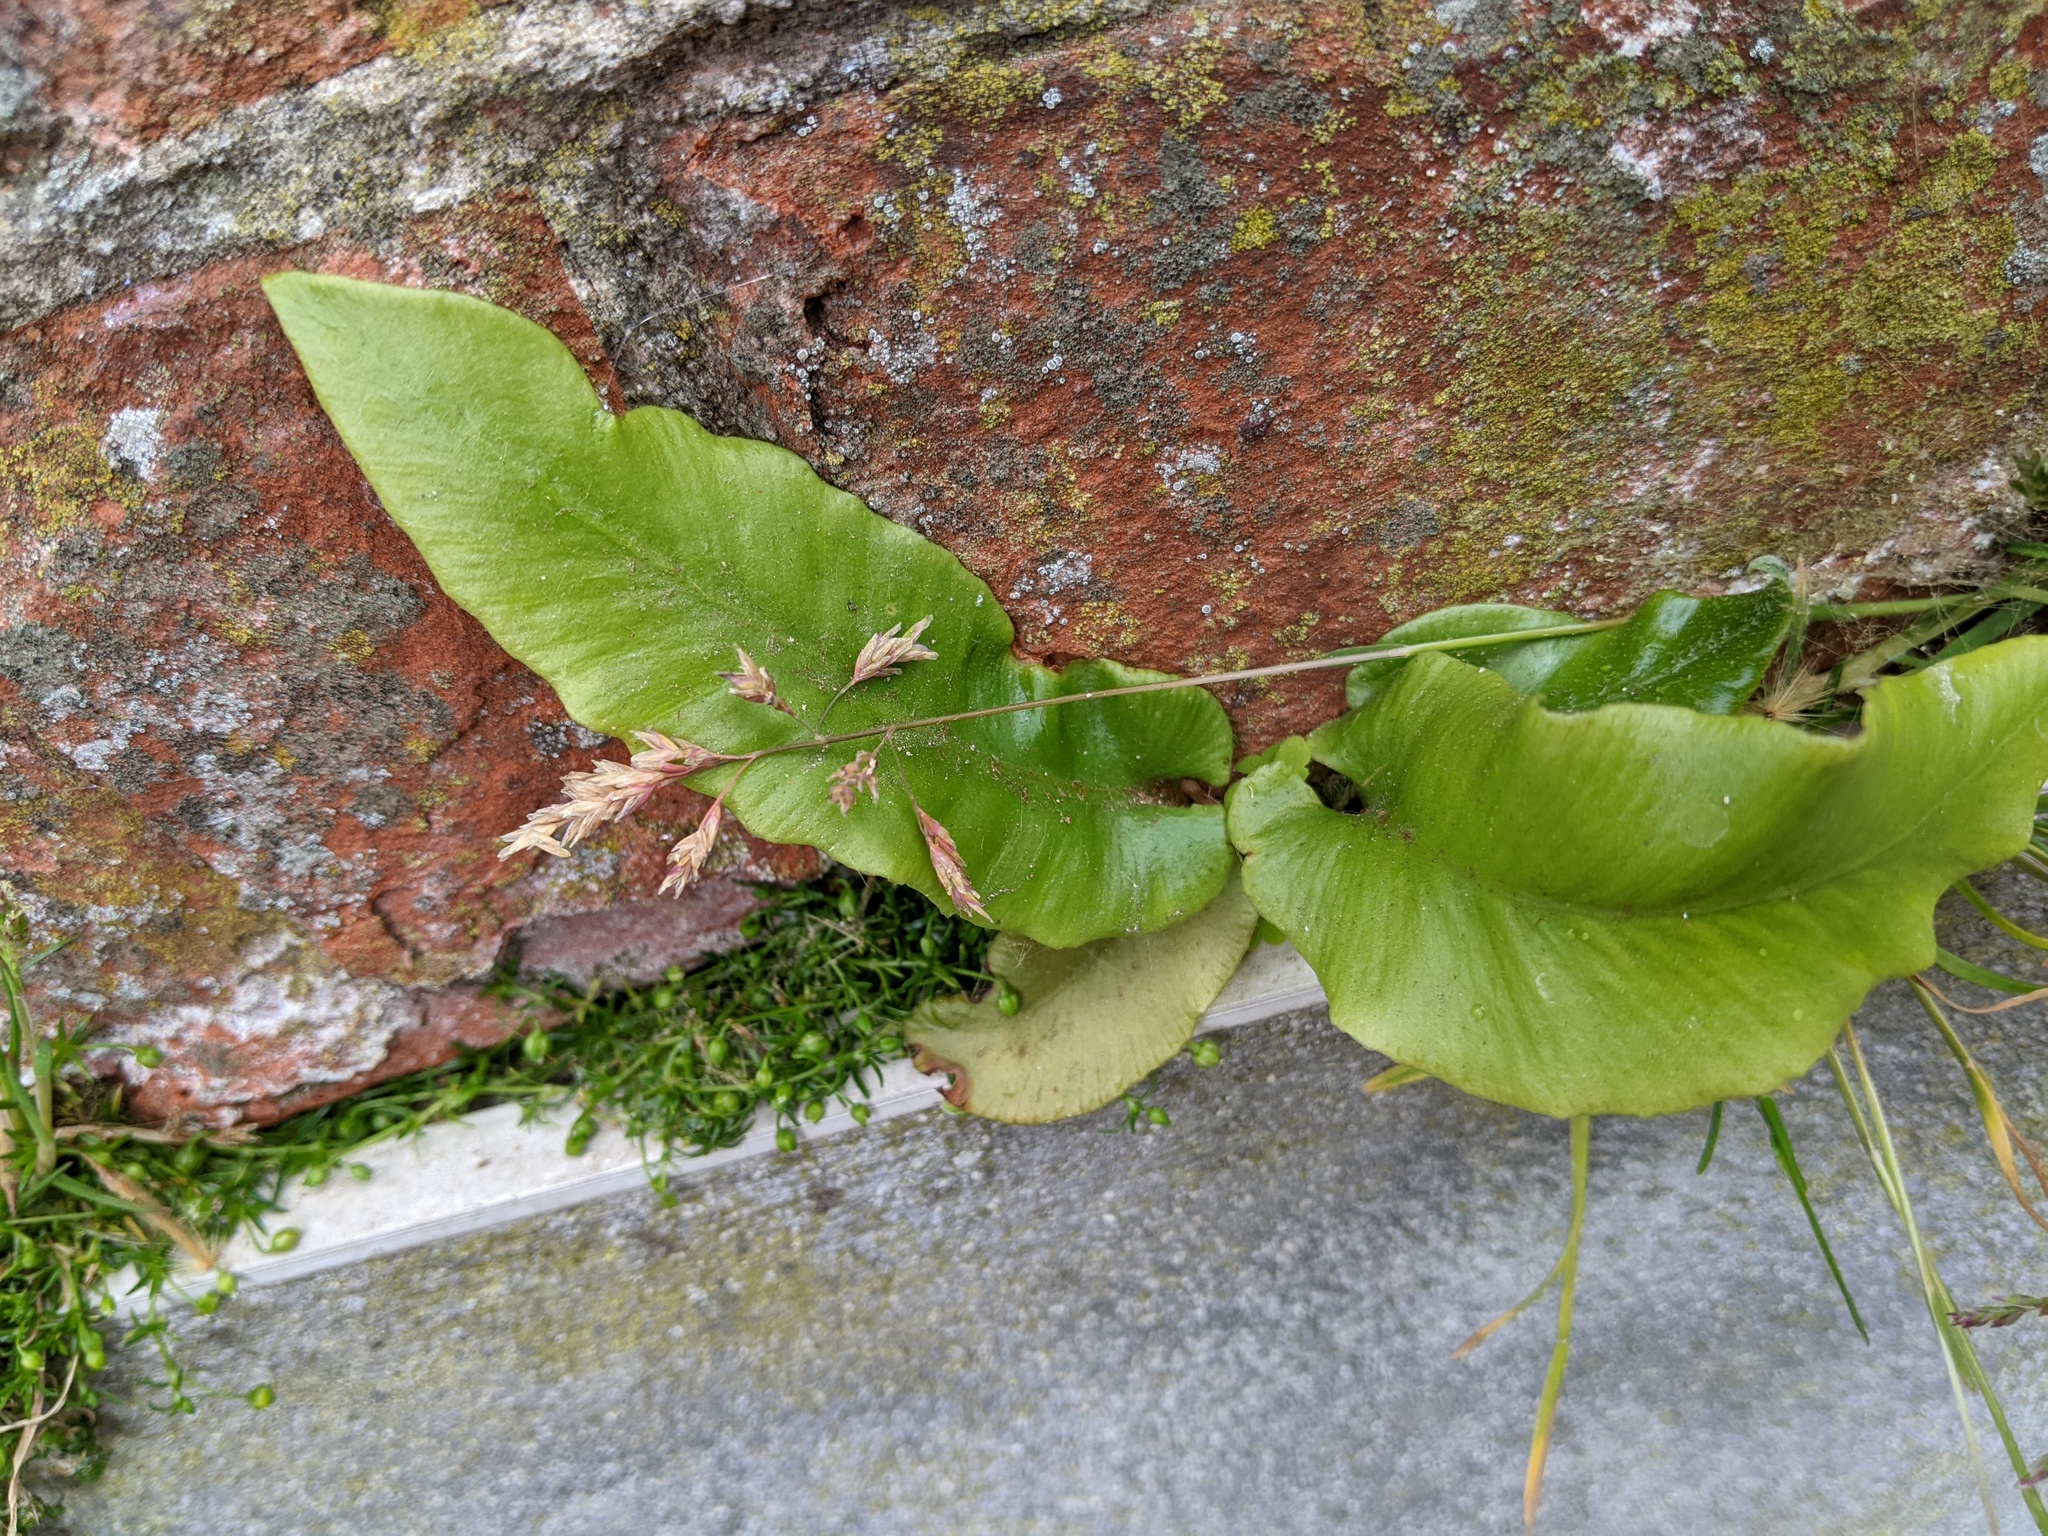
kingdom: Plantae
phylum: Tracheophyta
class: Polypodiopsida
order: Polypodiales
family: Aspleniaceae
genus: Asplenium
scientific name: Asplenium scolopendrium
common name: Hart's-tongue fern
